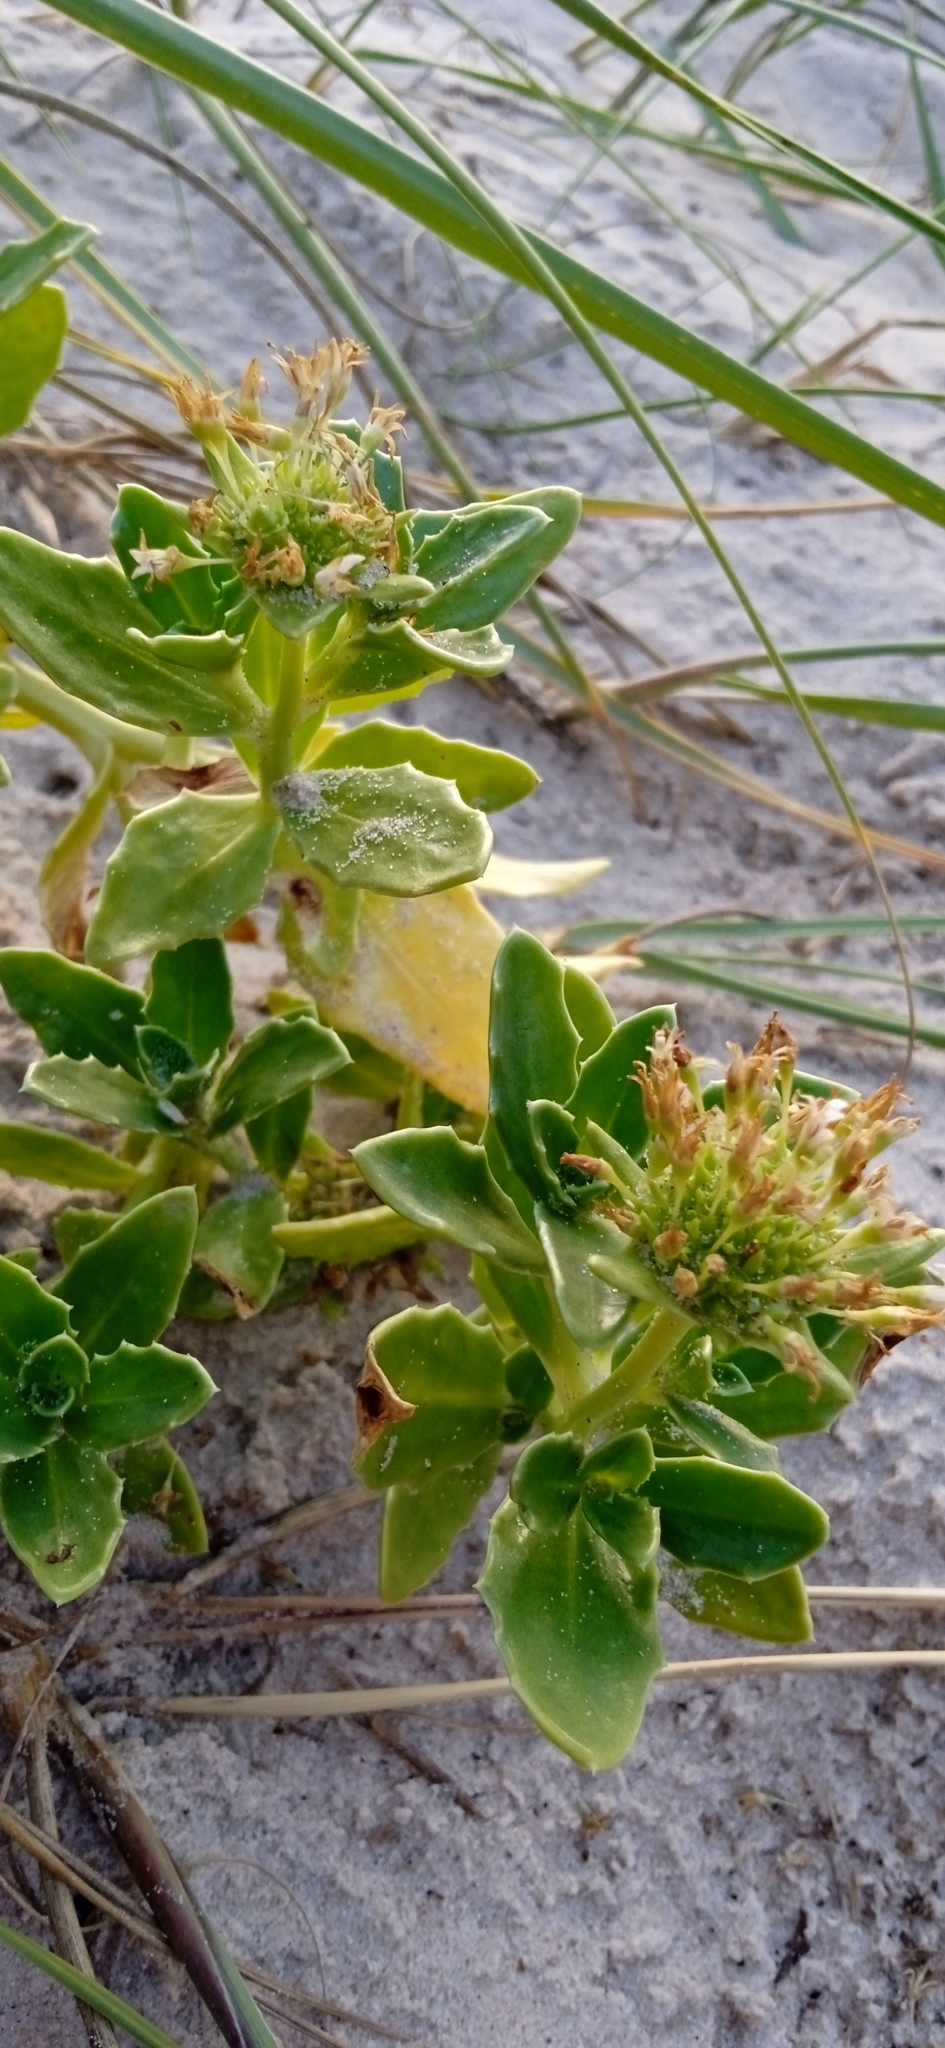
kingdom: Plantae
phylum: Tracheophyta
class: Magnoliopsida
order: Asterales
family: Calyceraceae
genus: Calycera
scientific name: Calycera crassifolia
